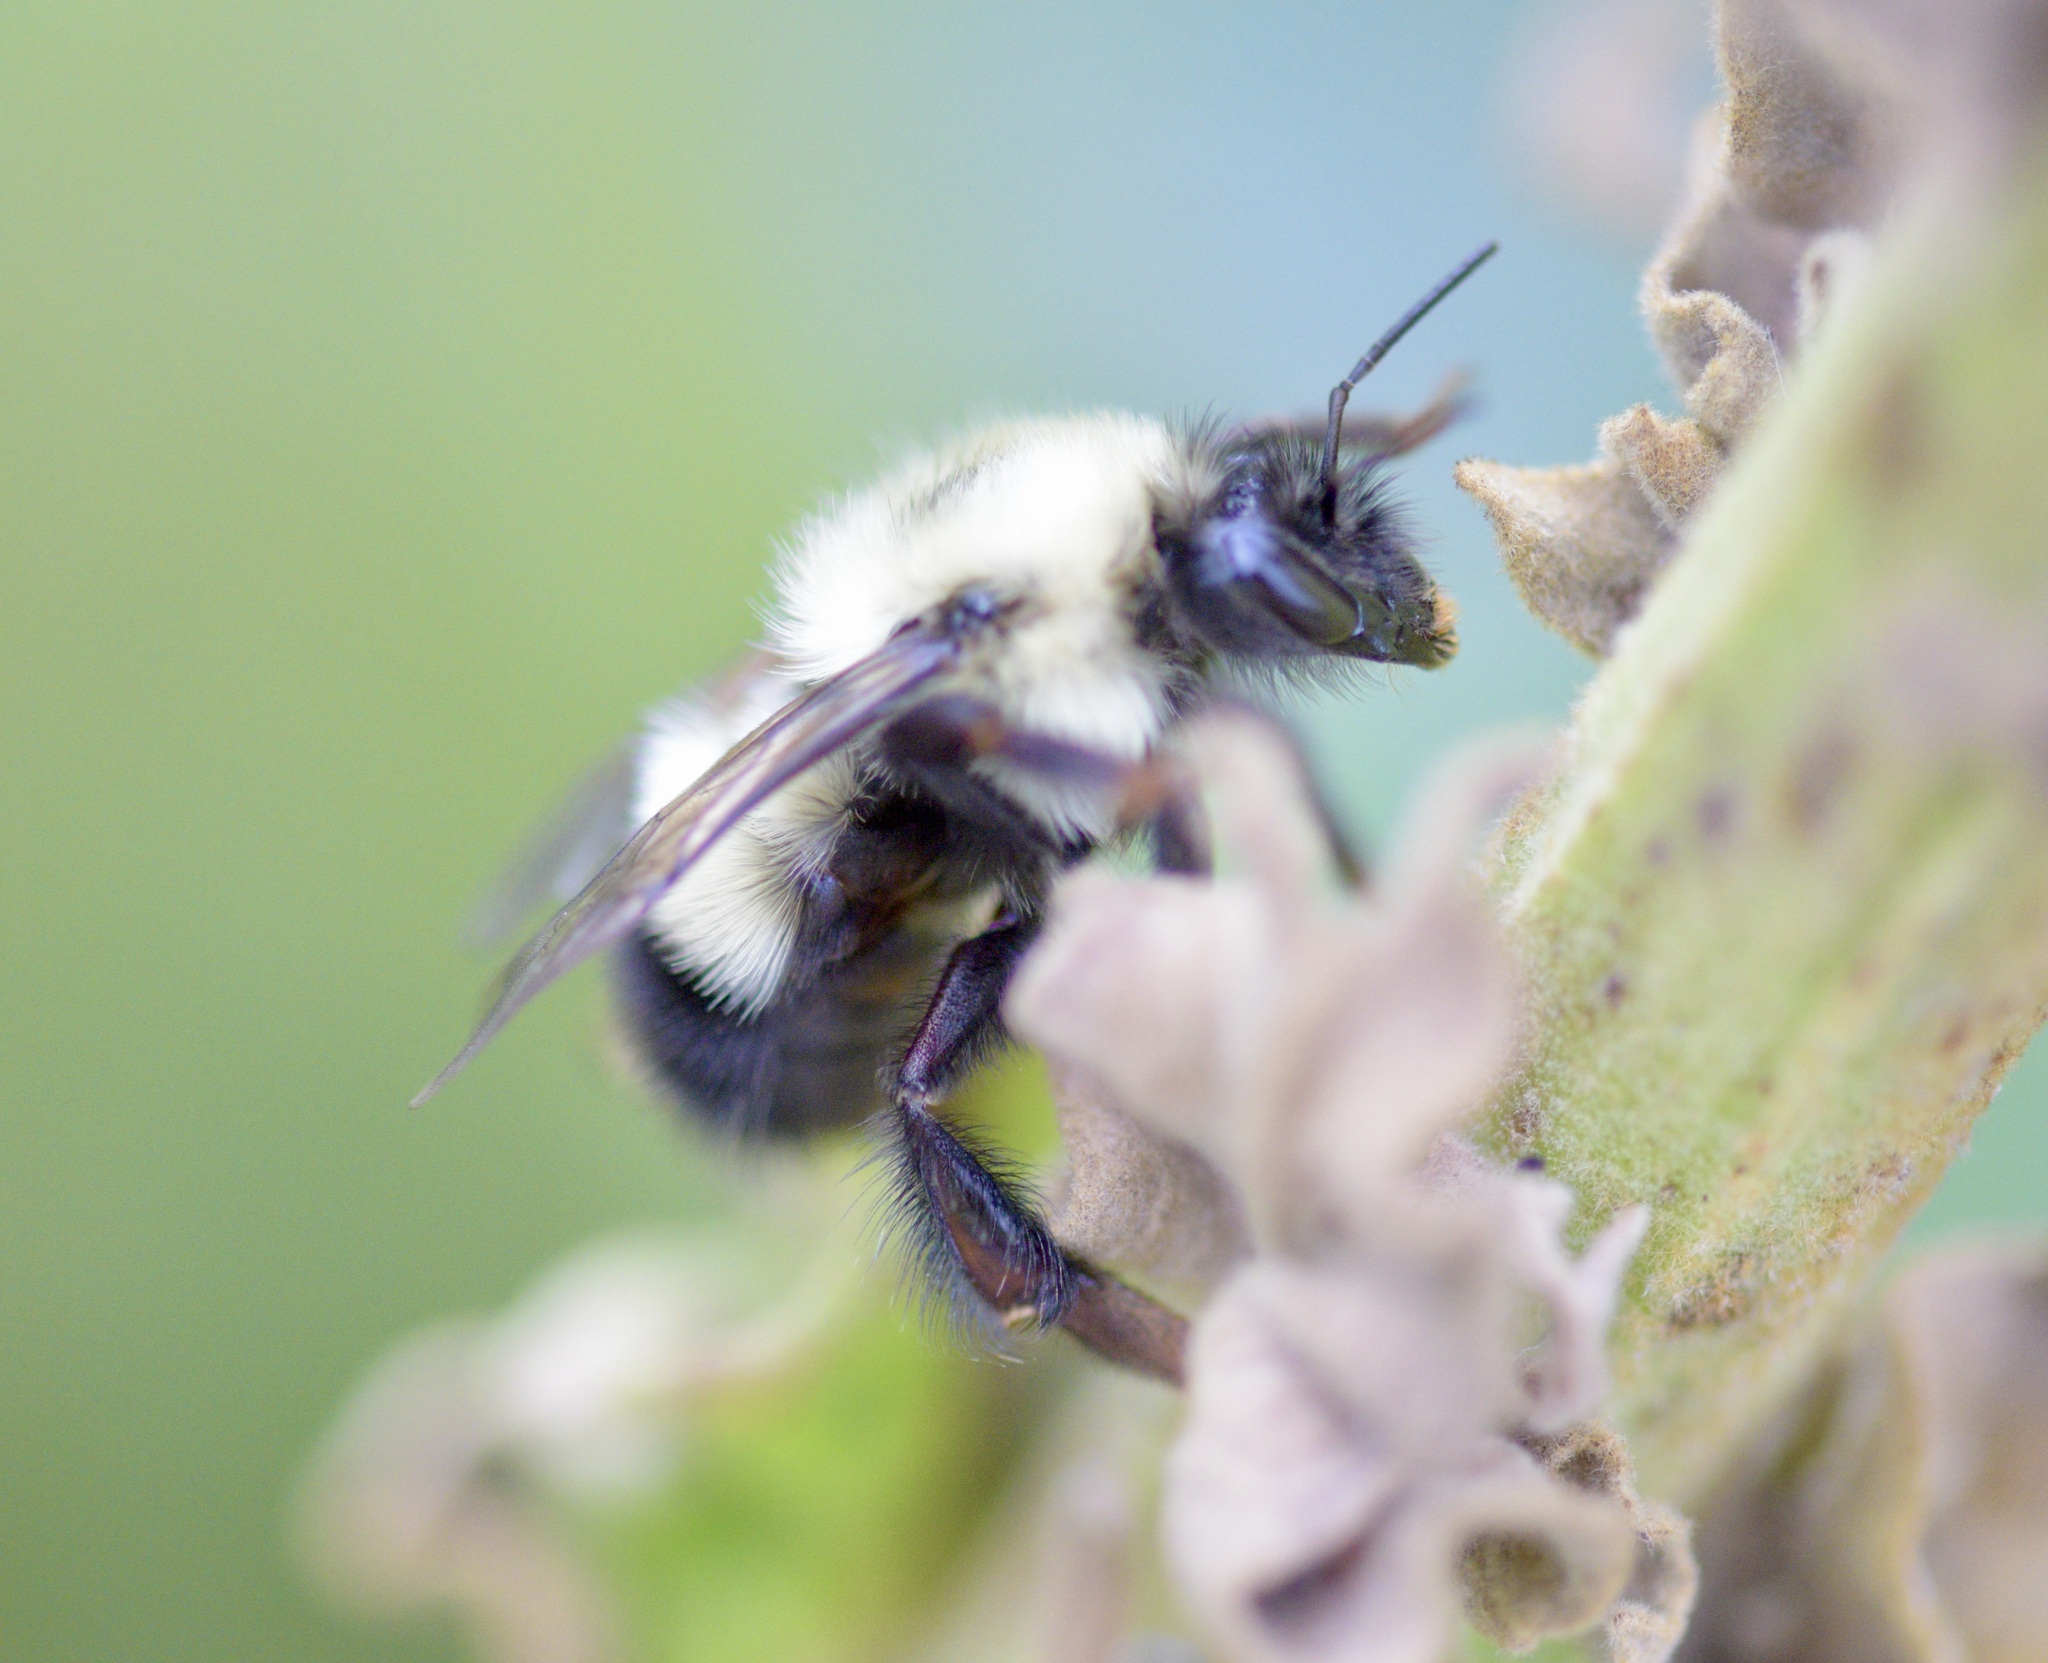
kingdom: Animalia
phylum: Arthropoda
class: Insecta
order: Hymenoptera
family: Apidae
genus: Bombus
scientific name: Bombus vagans
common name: Half-black bumble bee
